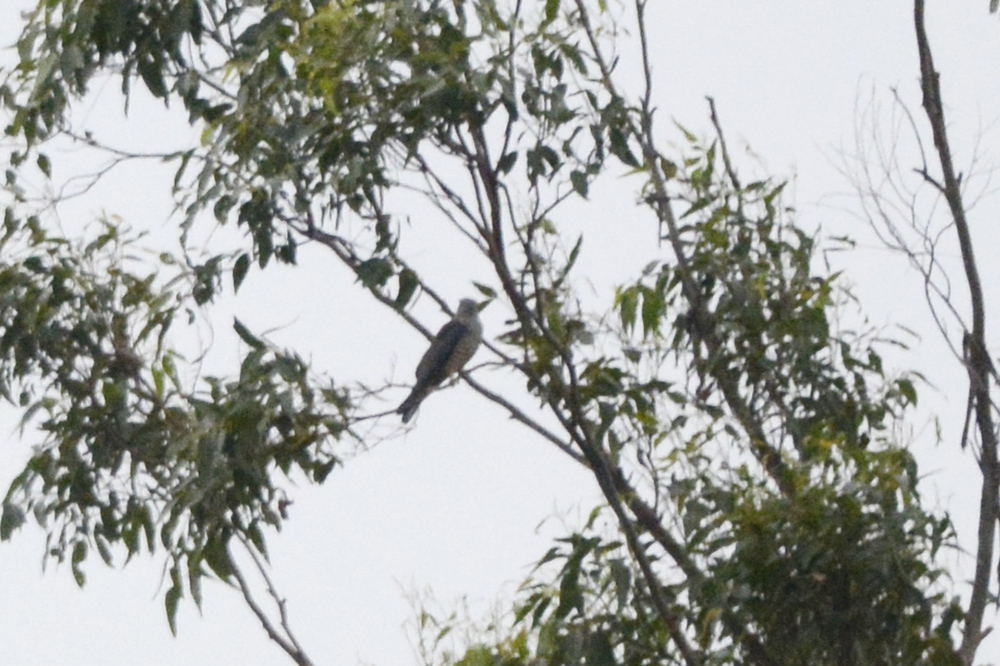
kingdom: Animalia
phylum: Chordata
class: Aves
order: Accipitriformes
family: Accipitridae
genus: Aviceda
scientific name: Aviceda subcristata
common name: Pacific baza
